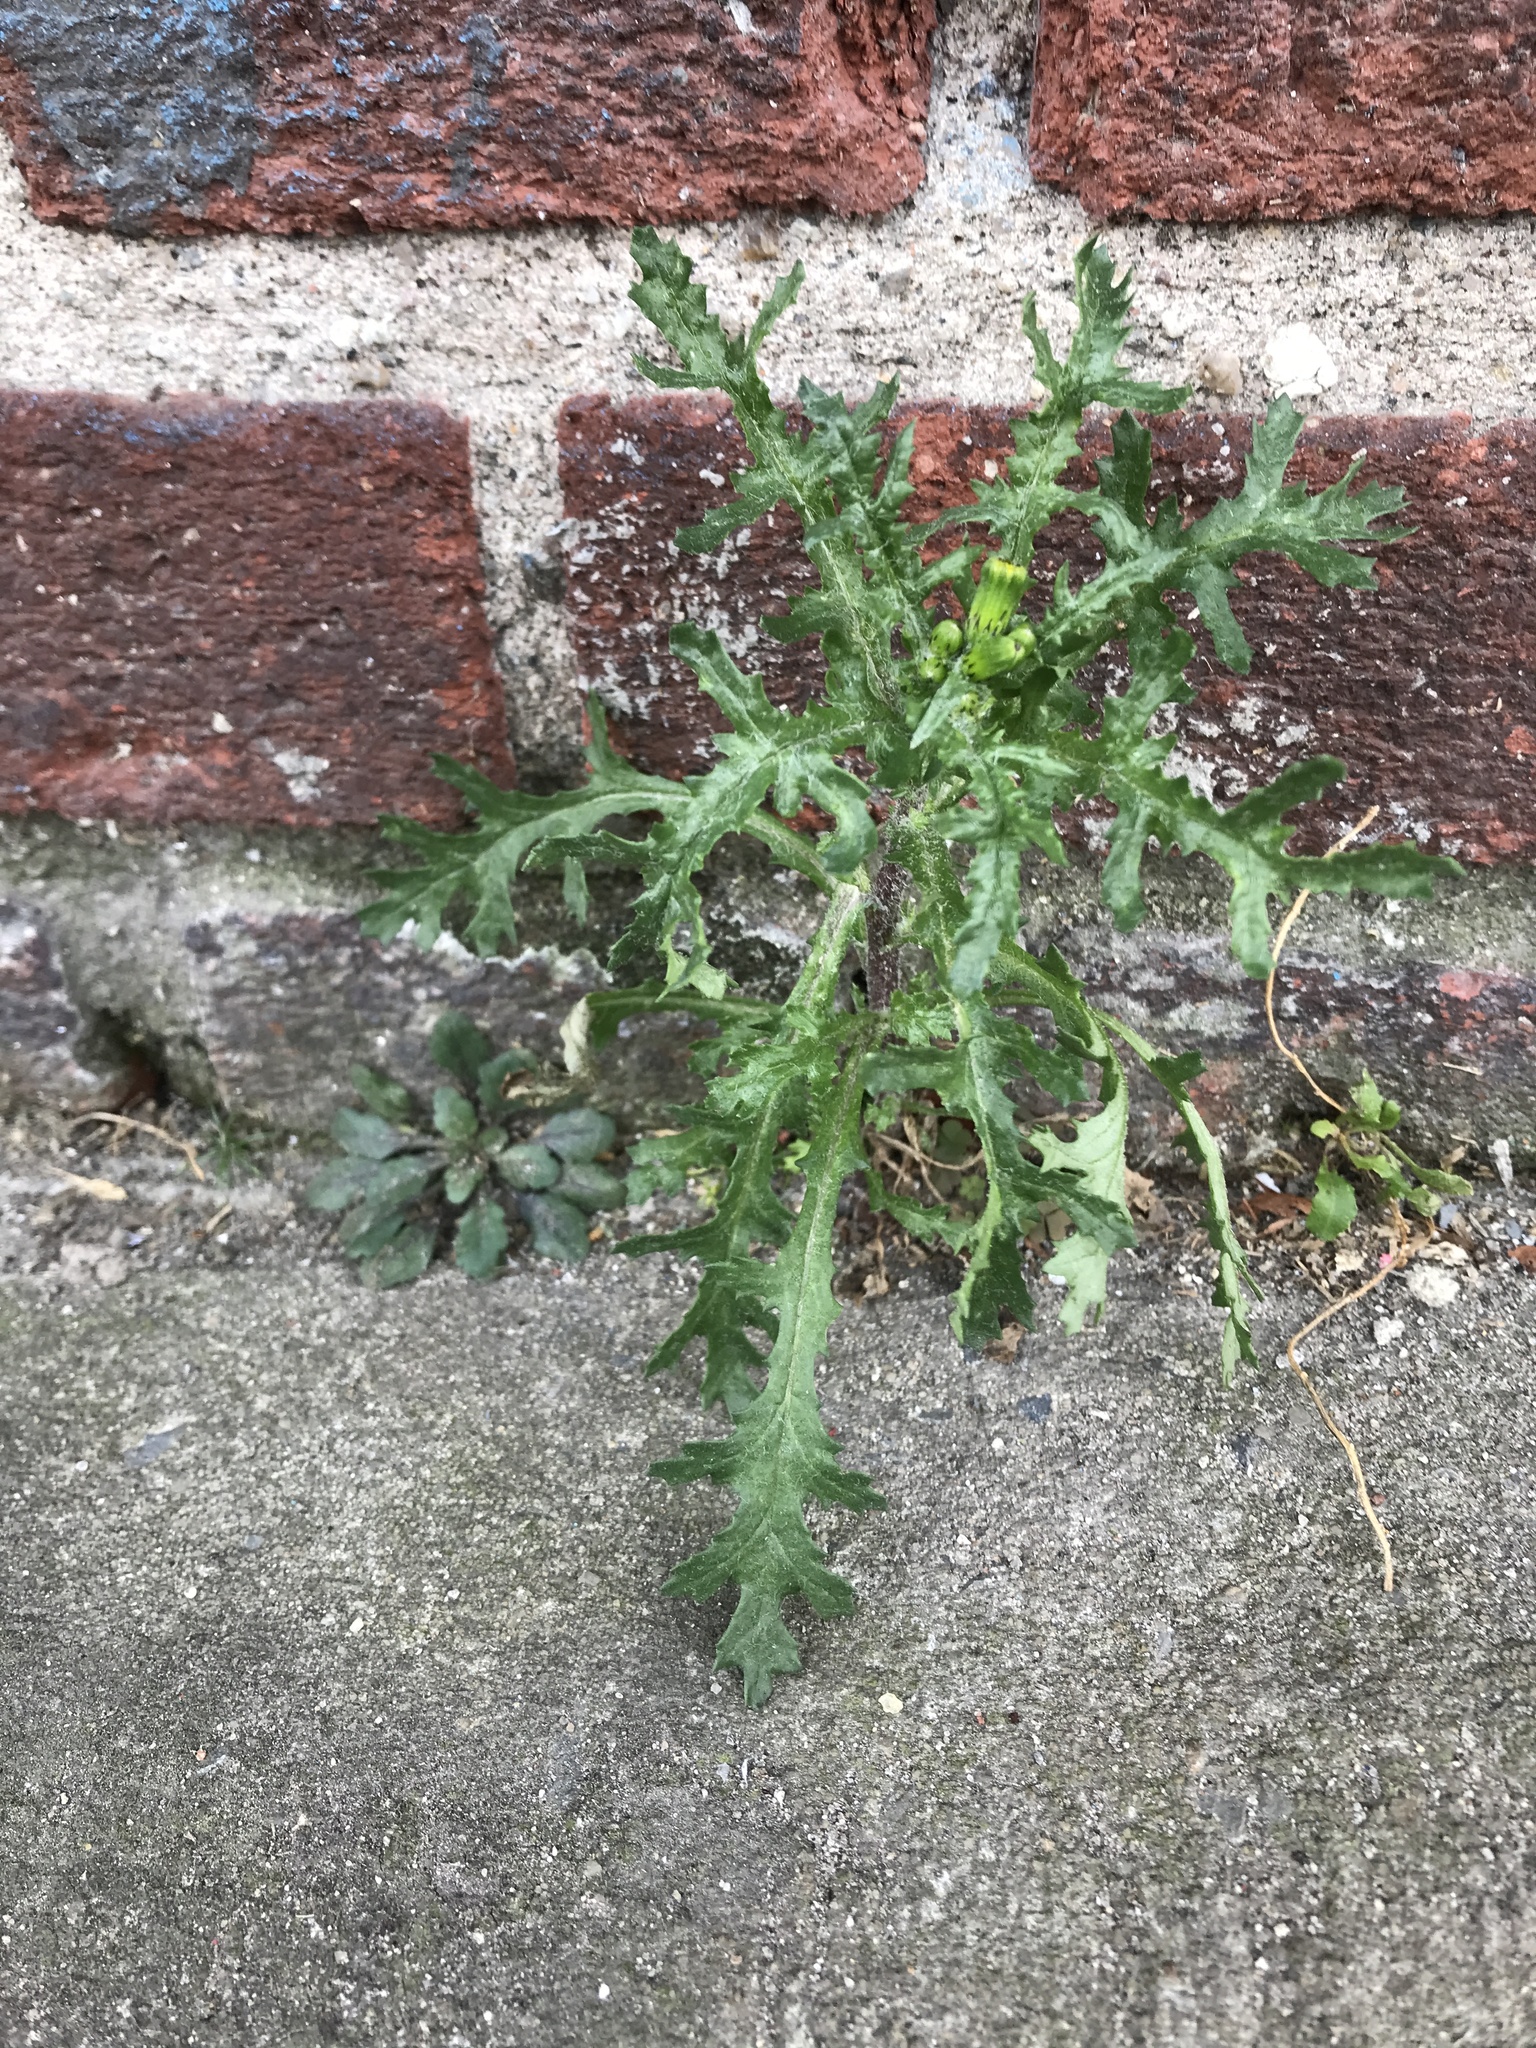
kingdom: Plantae
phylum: Tracheophyta
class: Magnoliopsida
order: Asterales
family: Asteraceae
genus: Senecio
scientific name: Senecio vulgaris
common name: Old-man-in-the-spring
